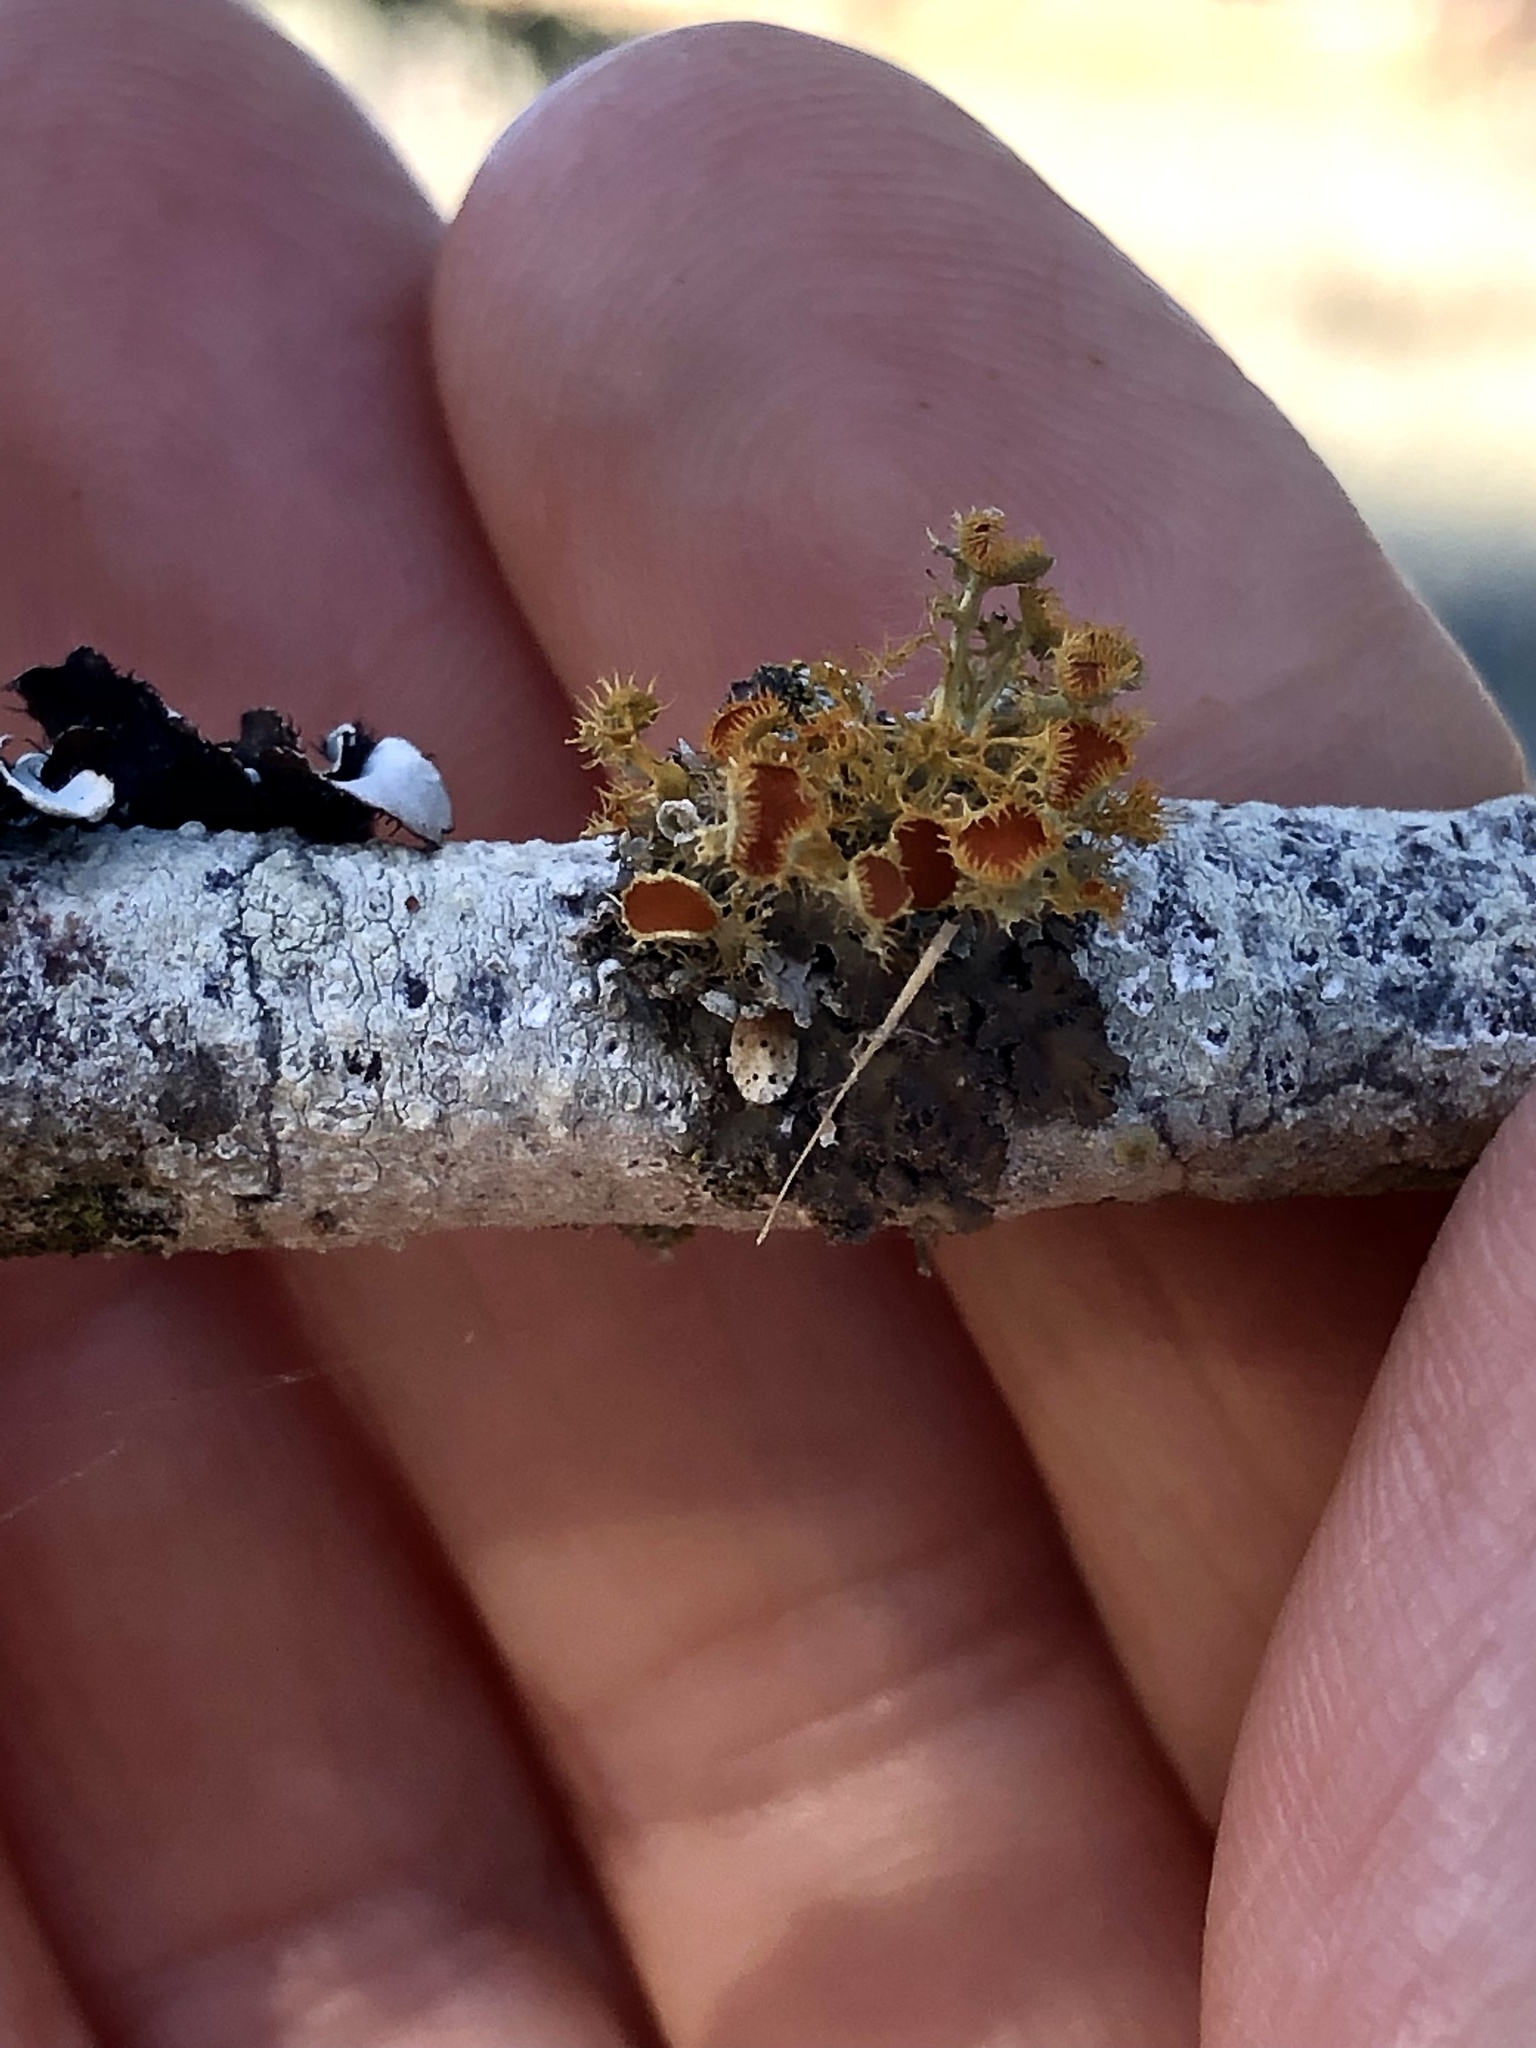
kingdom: Fungi
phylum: Ascomycota
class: Lecanoromycetes
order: Teloschistales
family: Teloschistaceae
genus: Niorma
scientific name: Niorma chrysophthalma
